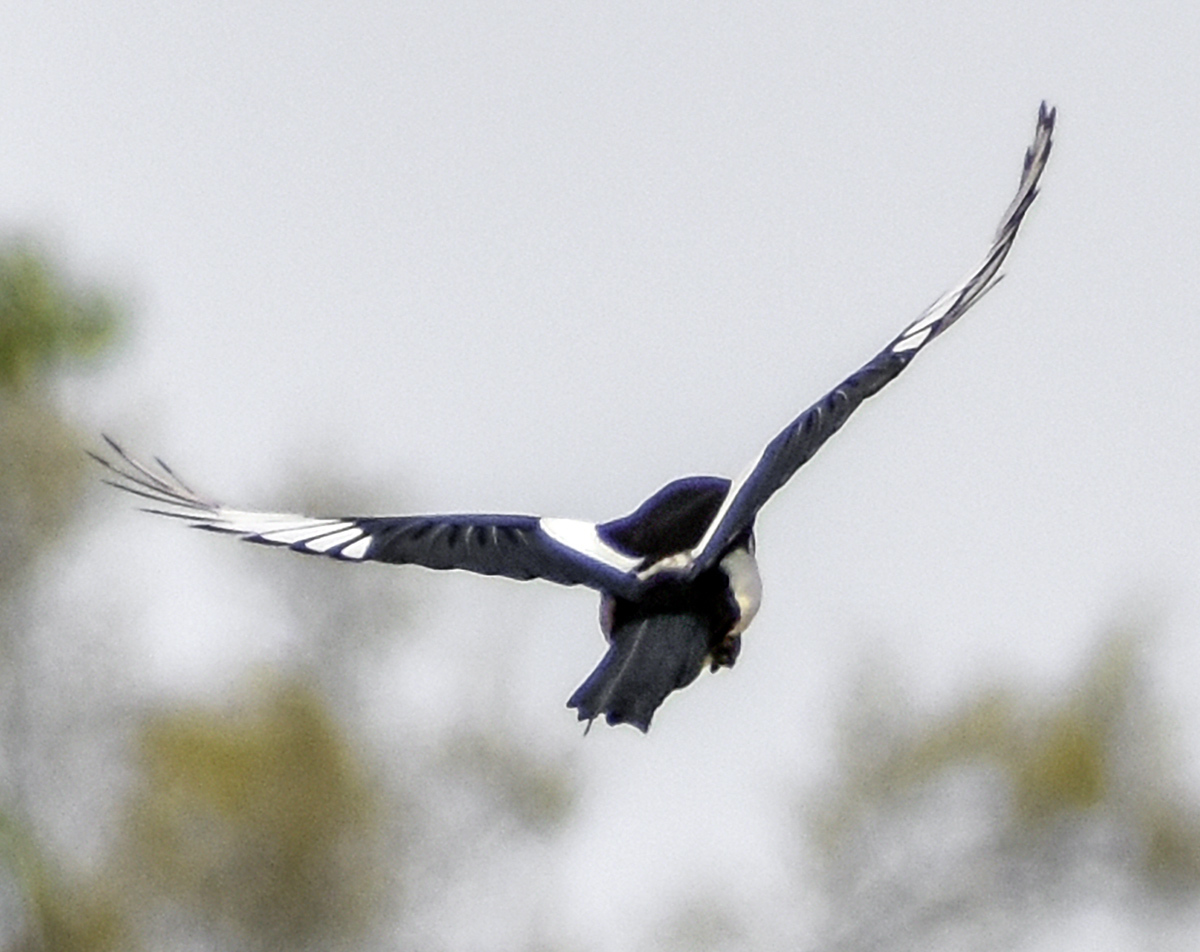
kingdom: Animalia
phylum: Chordata
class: Aves
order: Passeriformes
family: Corvidae
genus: Pica
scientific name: Pica pica
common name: Eurasian magpie
